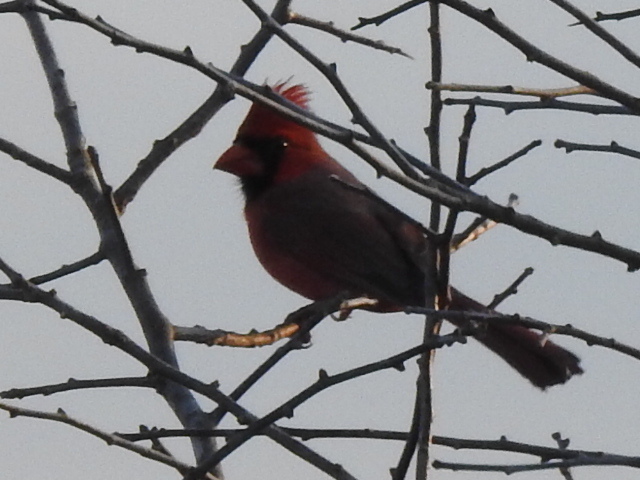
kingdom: Animalia
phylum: Chordata
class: Aves
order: Passeriformes
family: Cardinalidae
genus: Cardinalis
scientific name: Cardinalis cardinalis
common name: Northern cardinal
